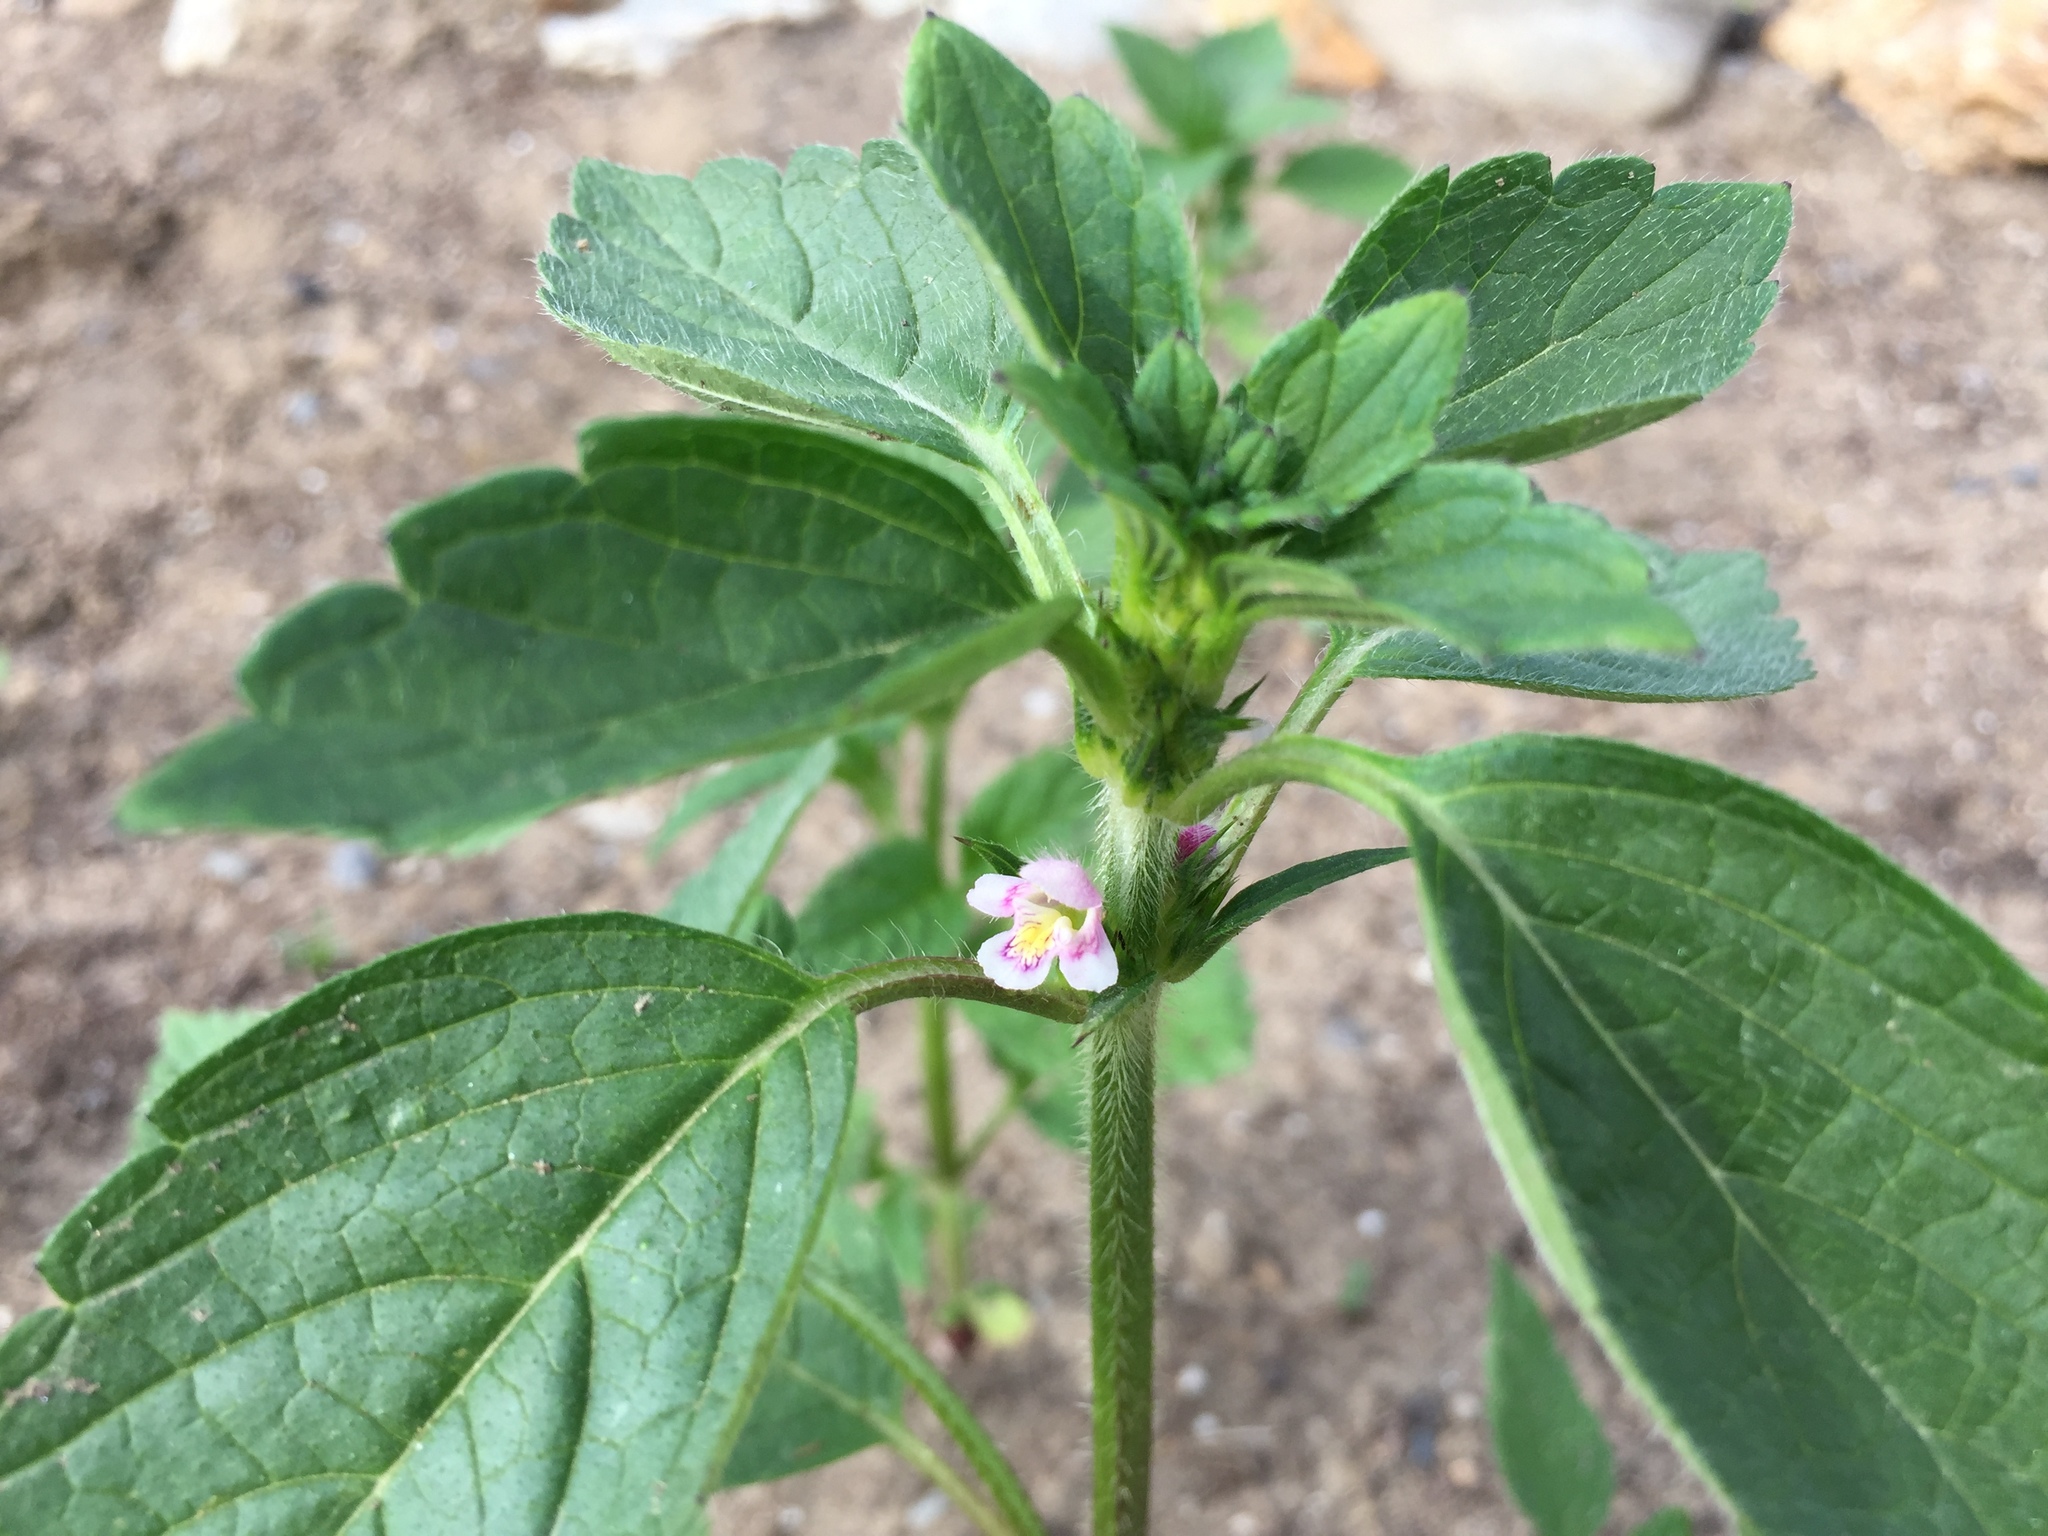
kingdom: Plantae
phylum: Tracheophyta
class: Magnoliopsida
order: Lamiales
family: Lamiaceae
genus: Galeopsis
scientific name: Galeopsis tetrahit
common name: Common hemp-nettle
